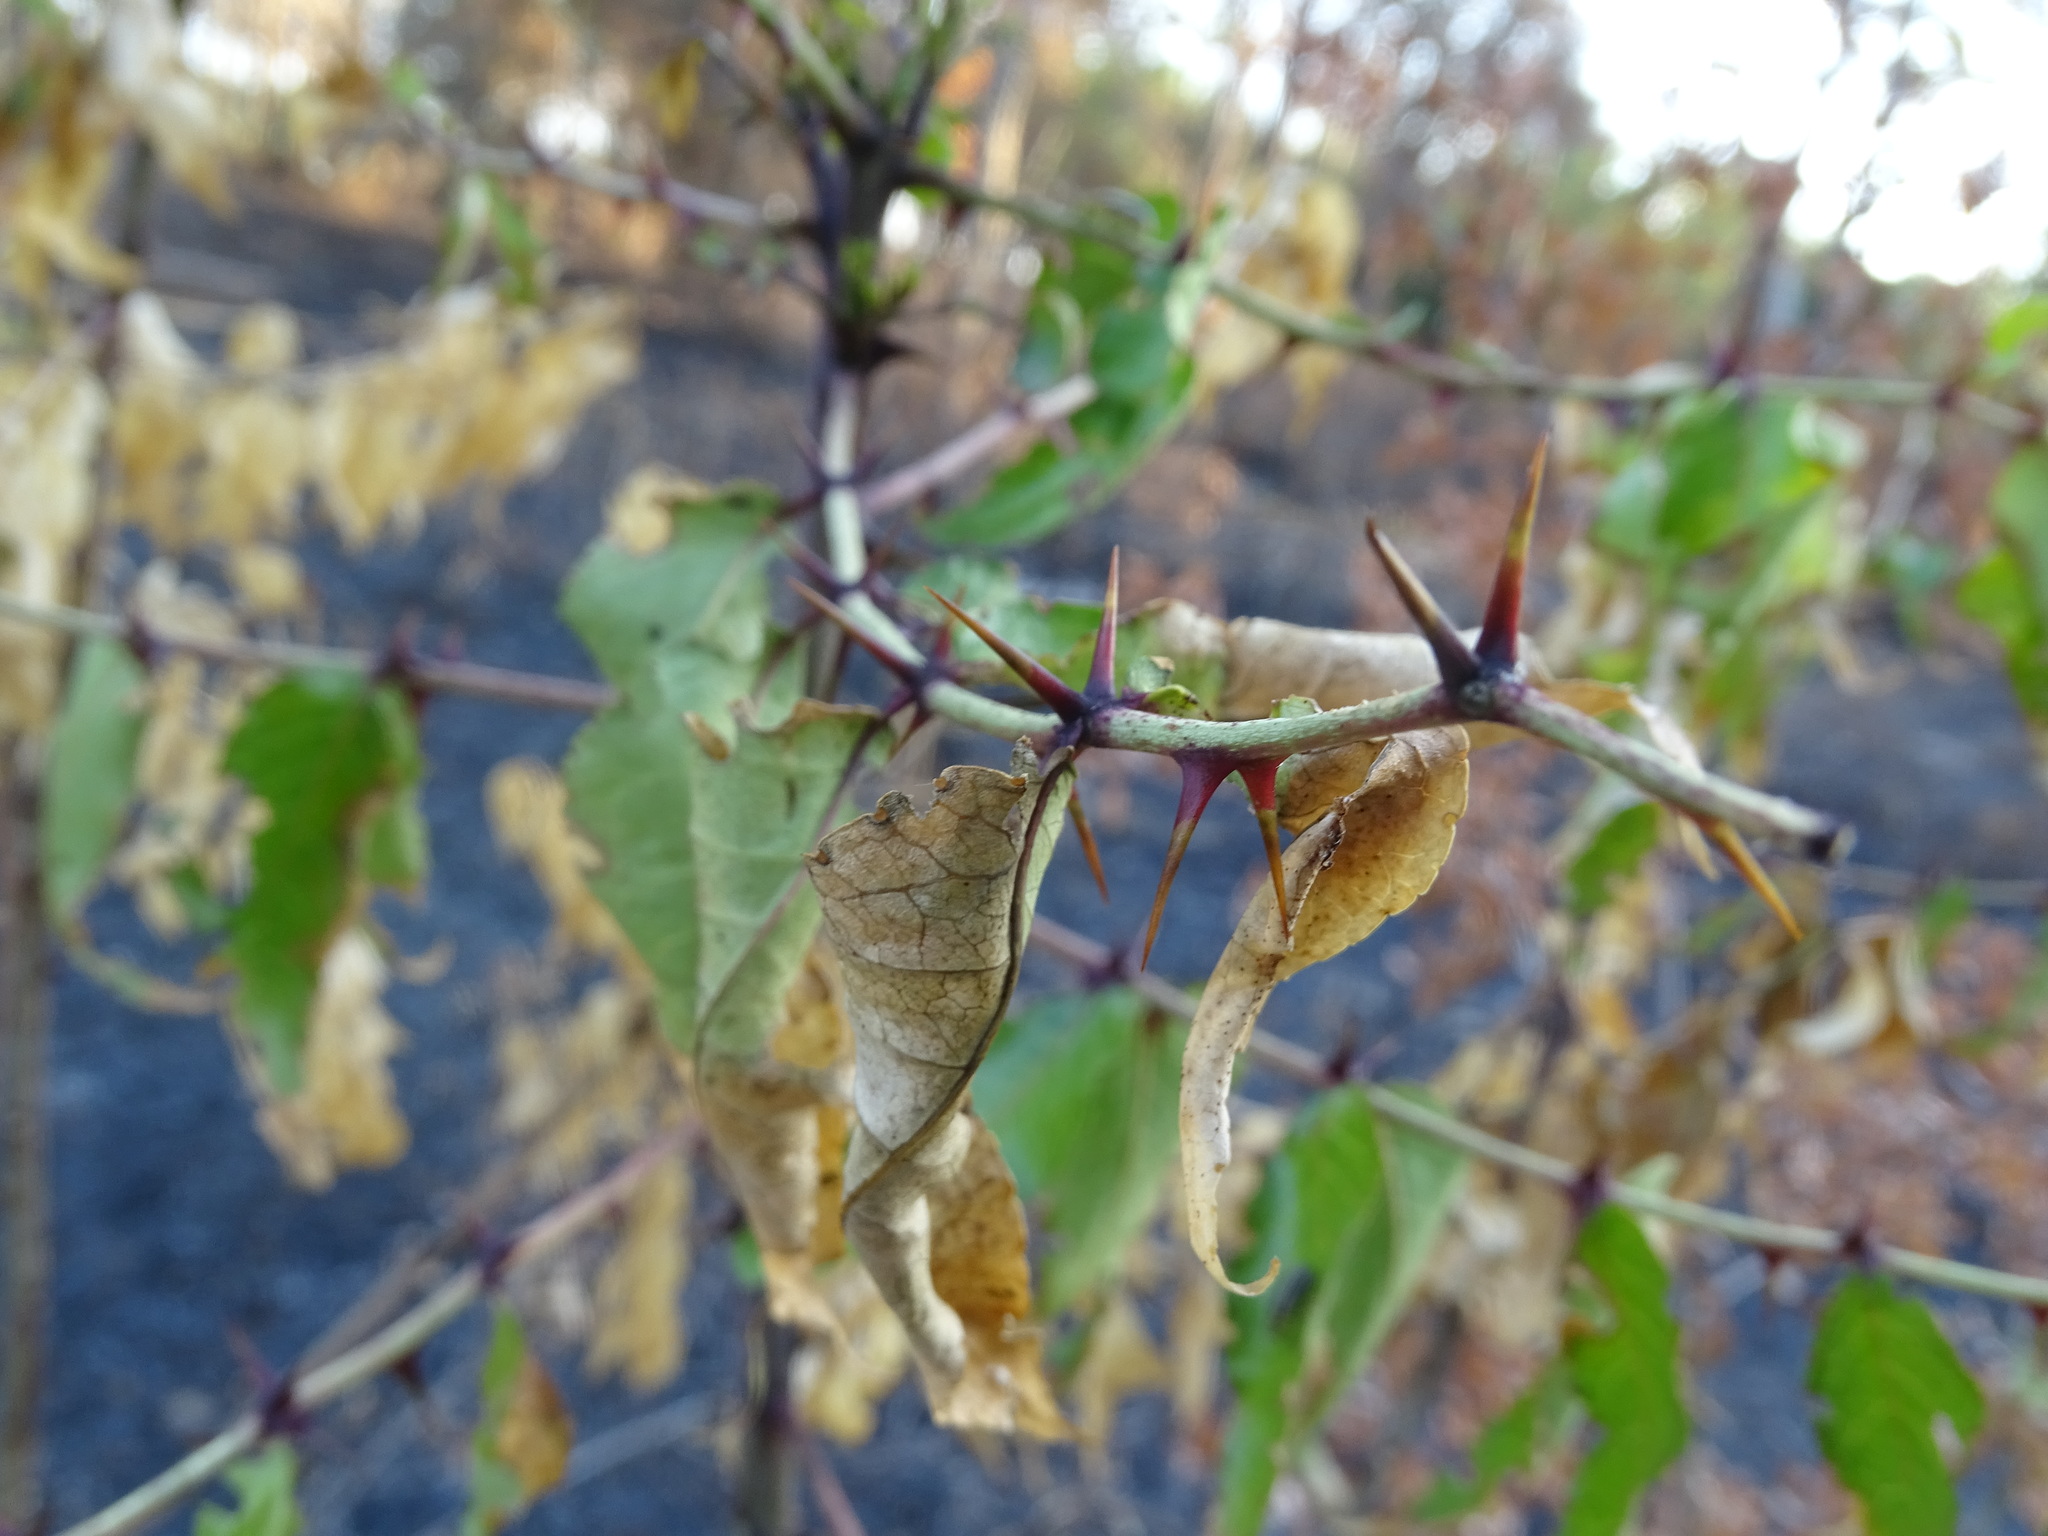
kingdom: Plantae
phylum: Tracheophyta
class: Magnoliopsida
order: Sapindales
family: Rutaceae
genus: Zanthoxylum
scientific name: Zanthoxylum clava-herculis
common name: Hercules'-club
